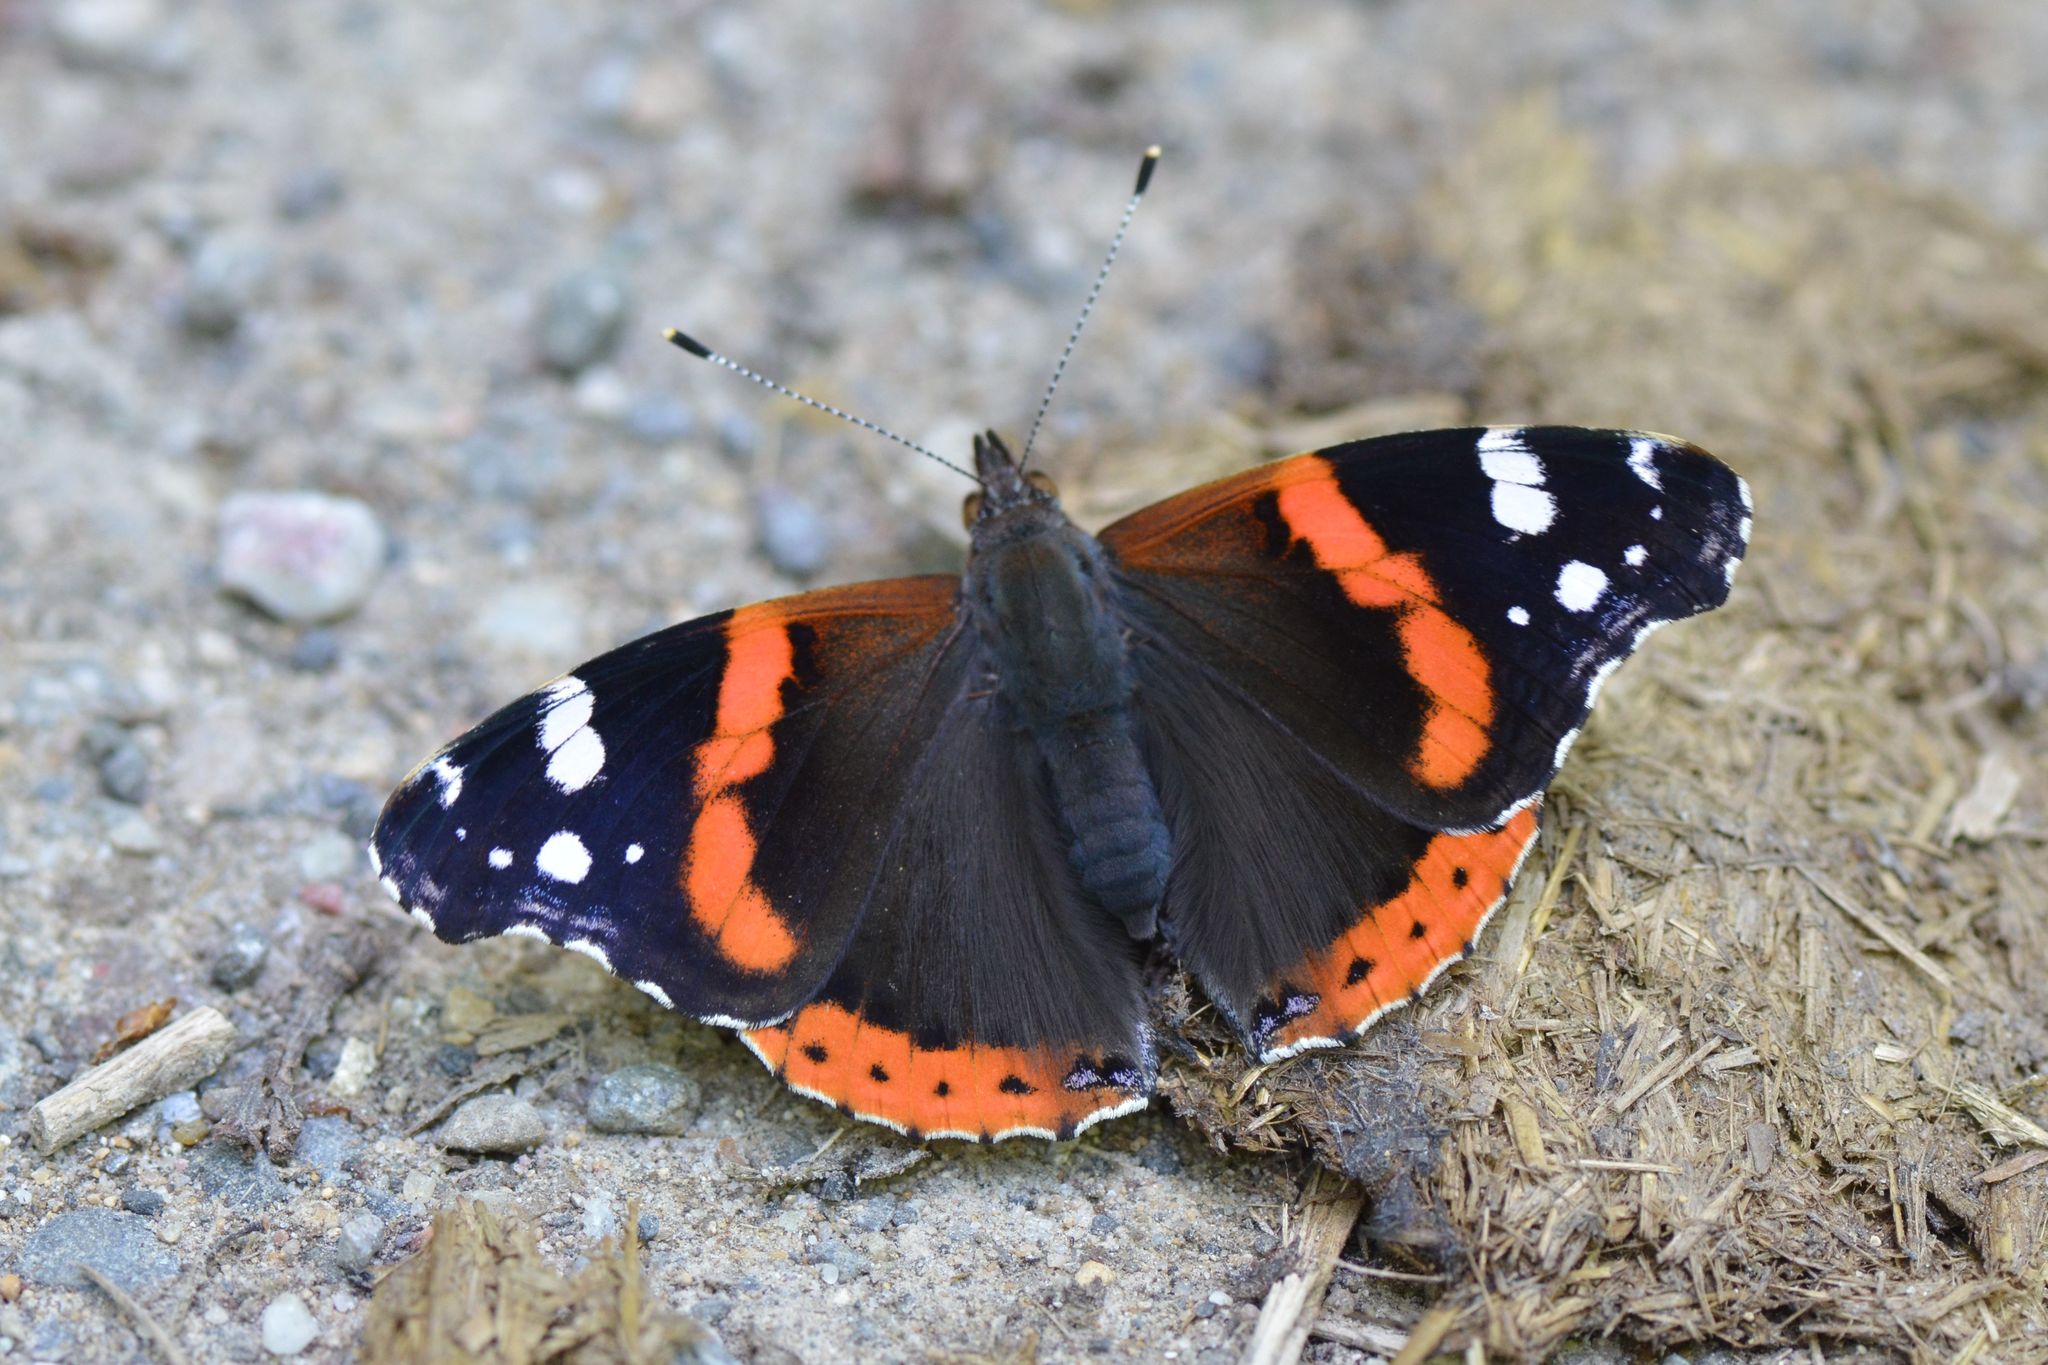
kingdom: Animalia
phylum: Arthropoda
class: Insecta
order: Lepidoptera
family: Nymphalidae
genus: Vanessa
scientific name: Vanessa atalanta
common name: Red admiral
